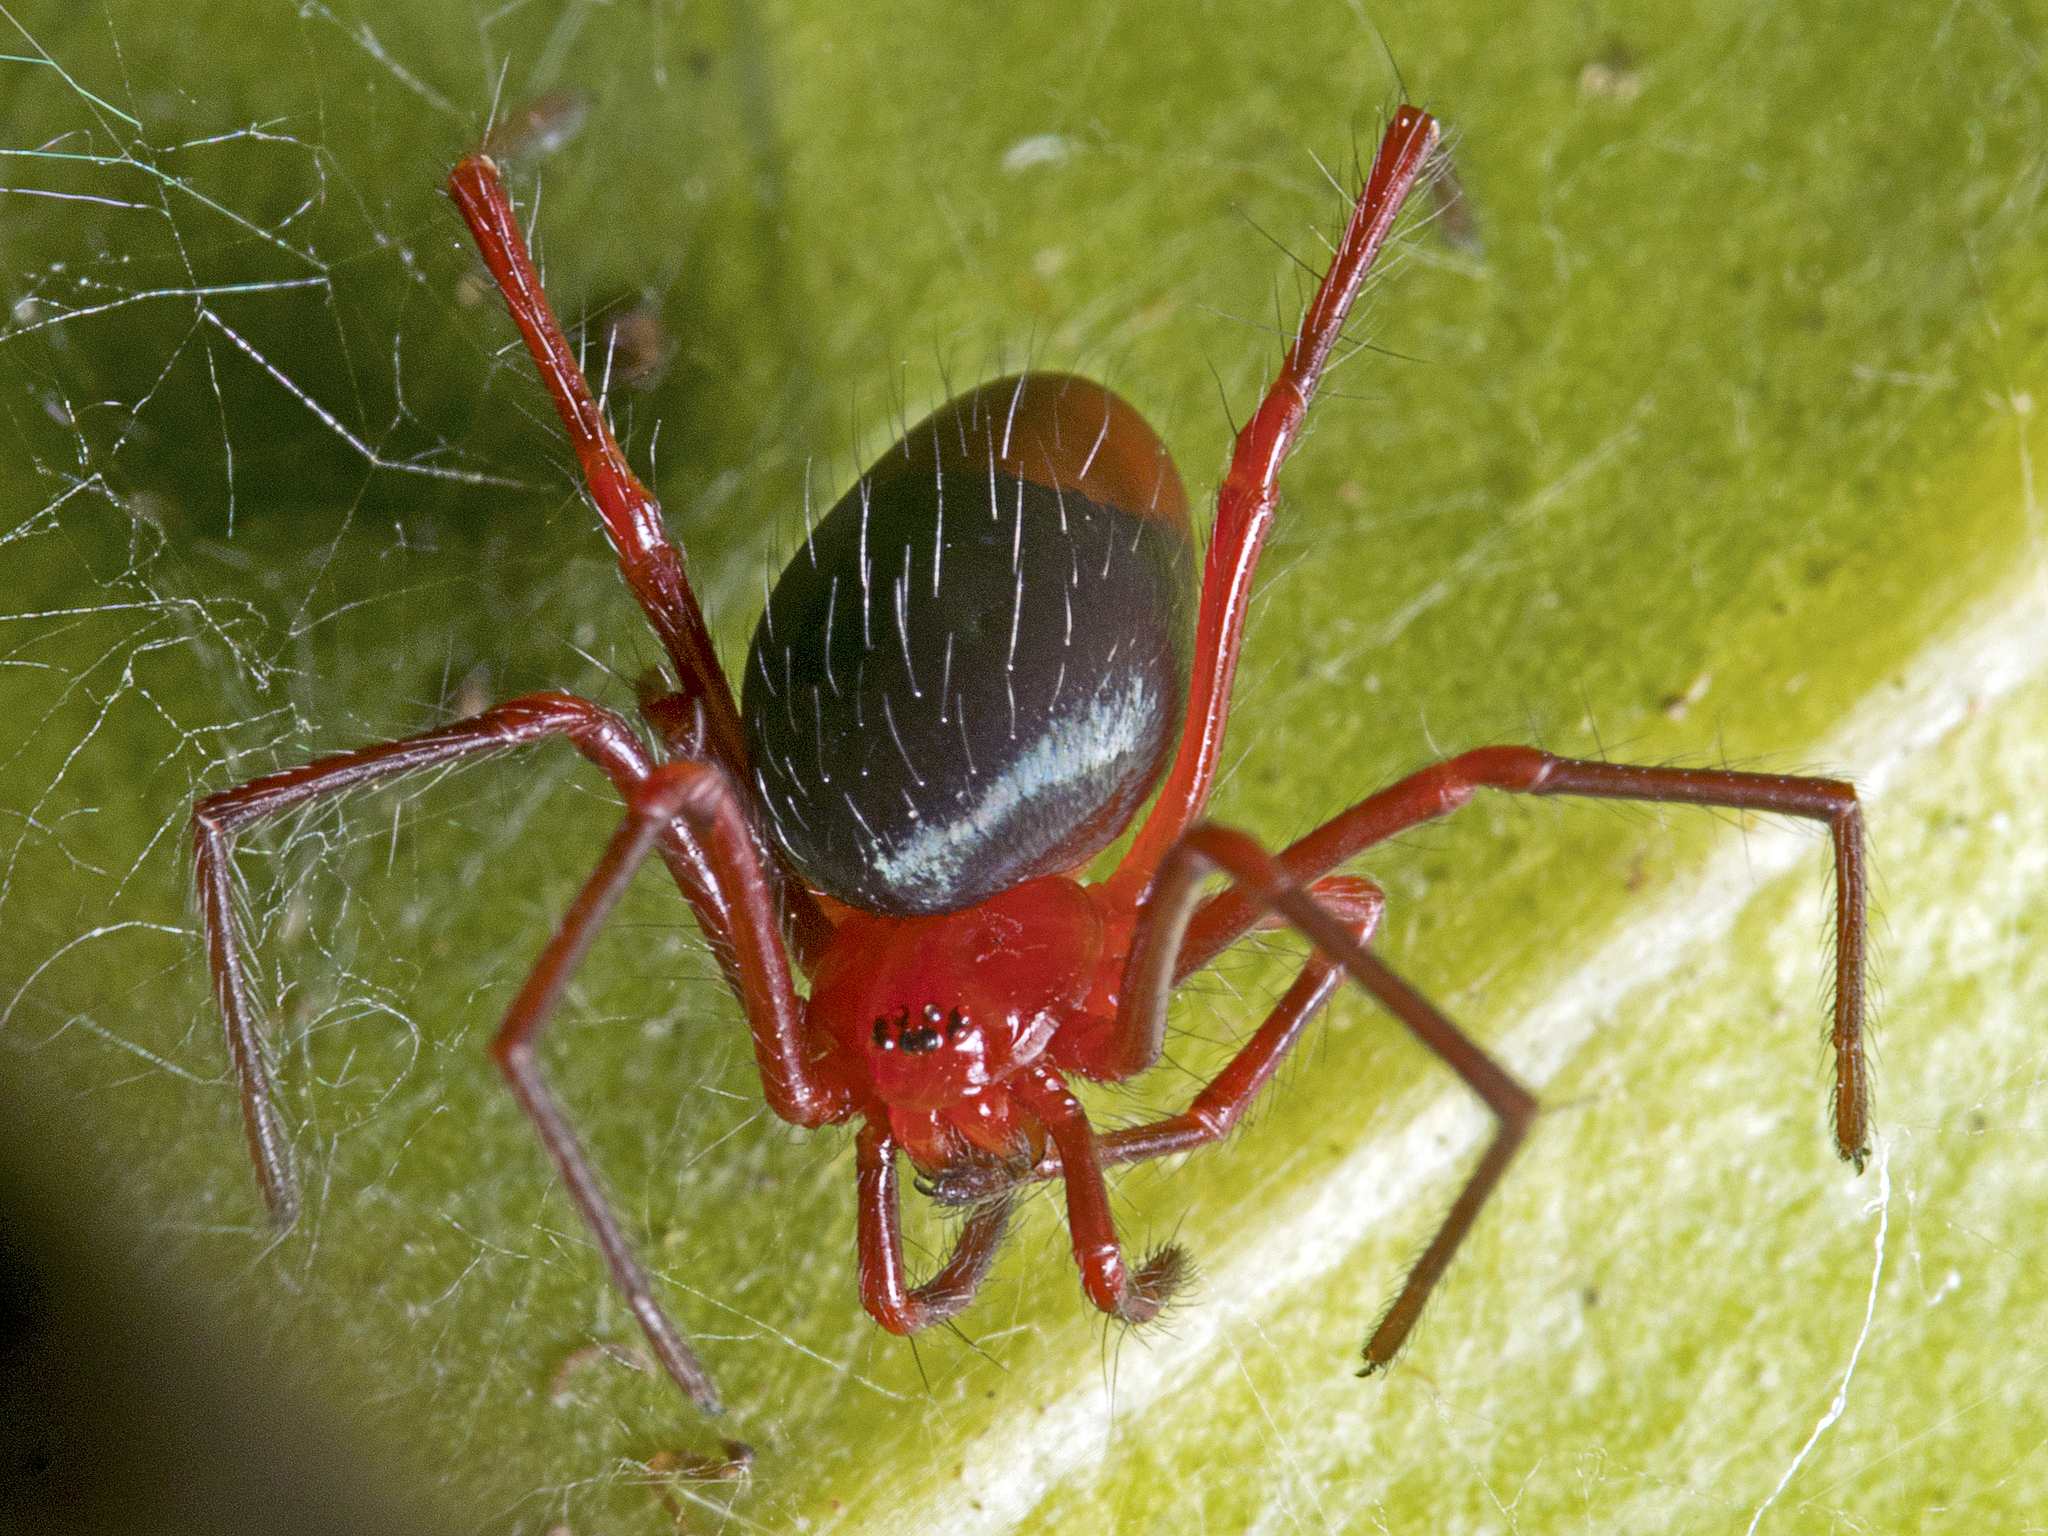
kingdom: Animalia
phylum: Arthropoda
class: Arachnida
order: Araneae
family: Nicodamidae
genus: Dimidamus
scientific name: Dimidamus dimidiatus
